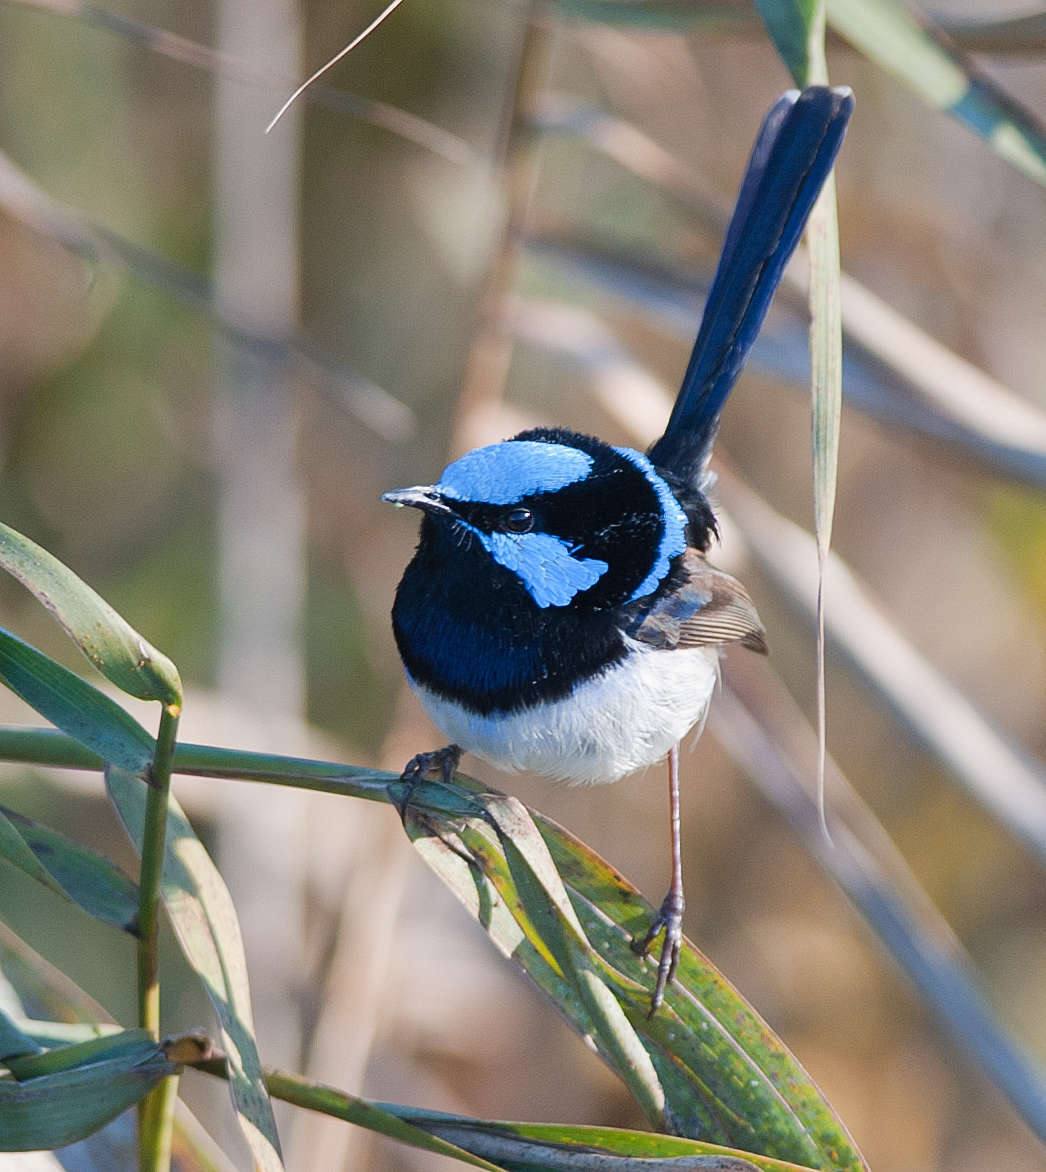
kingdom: Animalia
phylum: Chordata
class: Aves
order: Passeriformes
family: Maluridae
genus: Malurus
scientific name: Malurus cyaneus
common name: Superb fairywren
